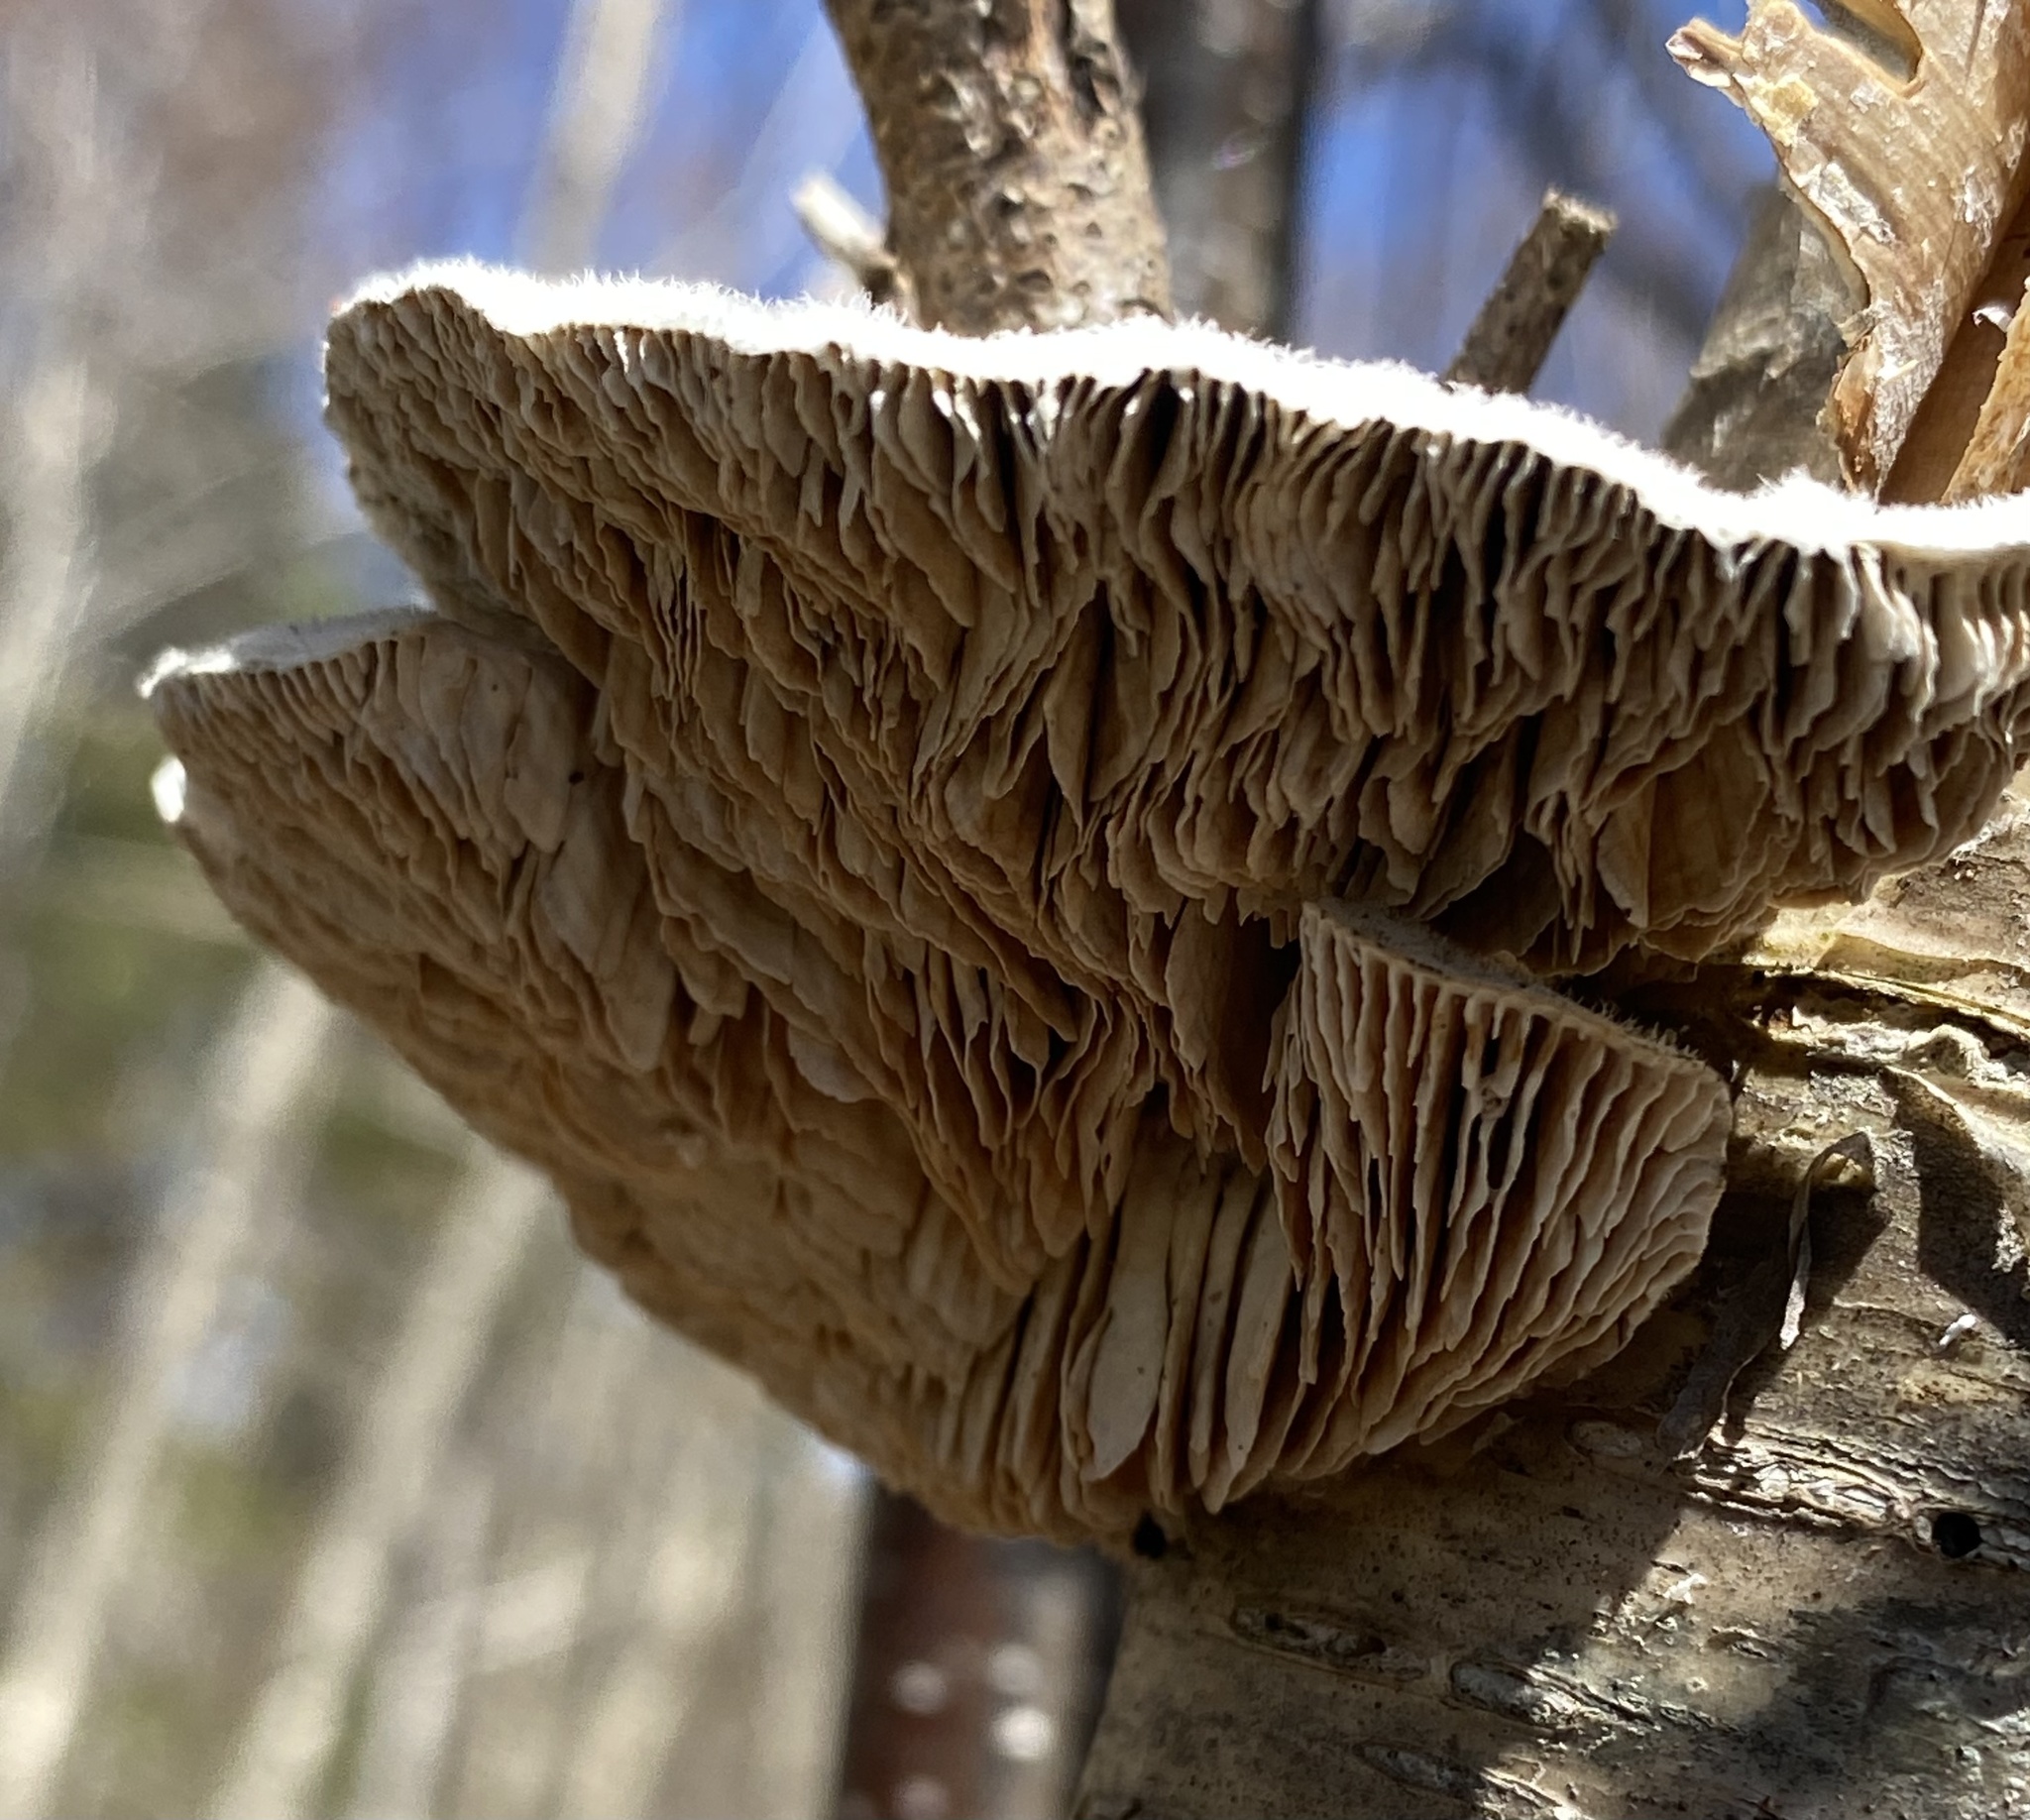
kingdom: Fungi
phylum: Basidiomycota
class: Agaricomycetes
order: Polyporales
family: Polyporaceae
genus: Lenzites
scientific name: Lenzites betulinus
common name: Birch mazegill
